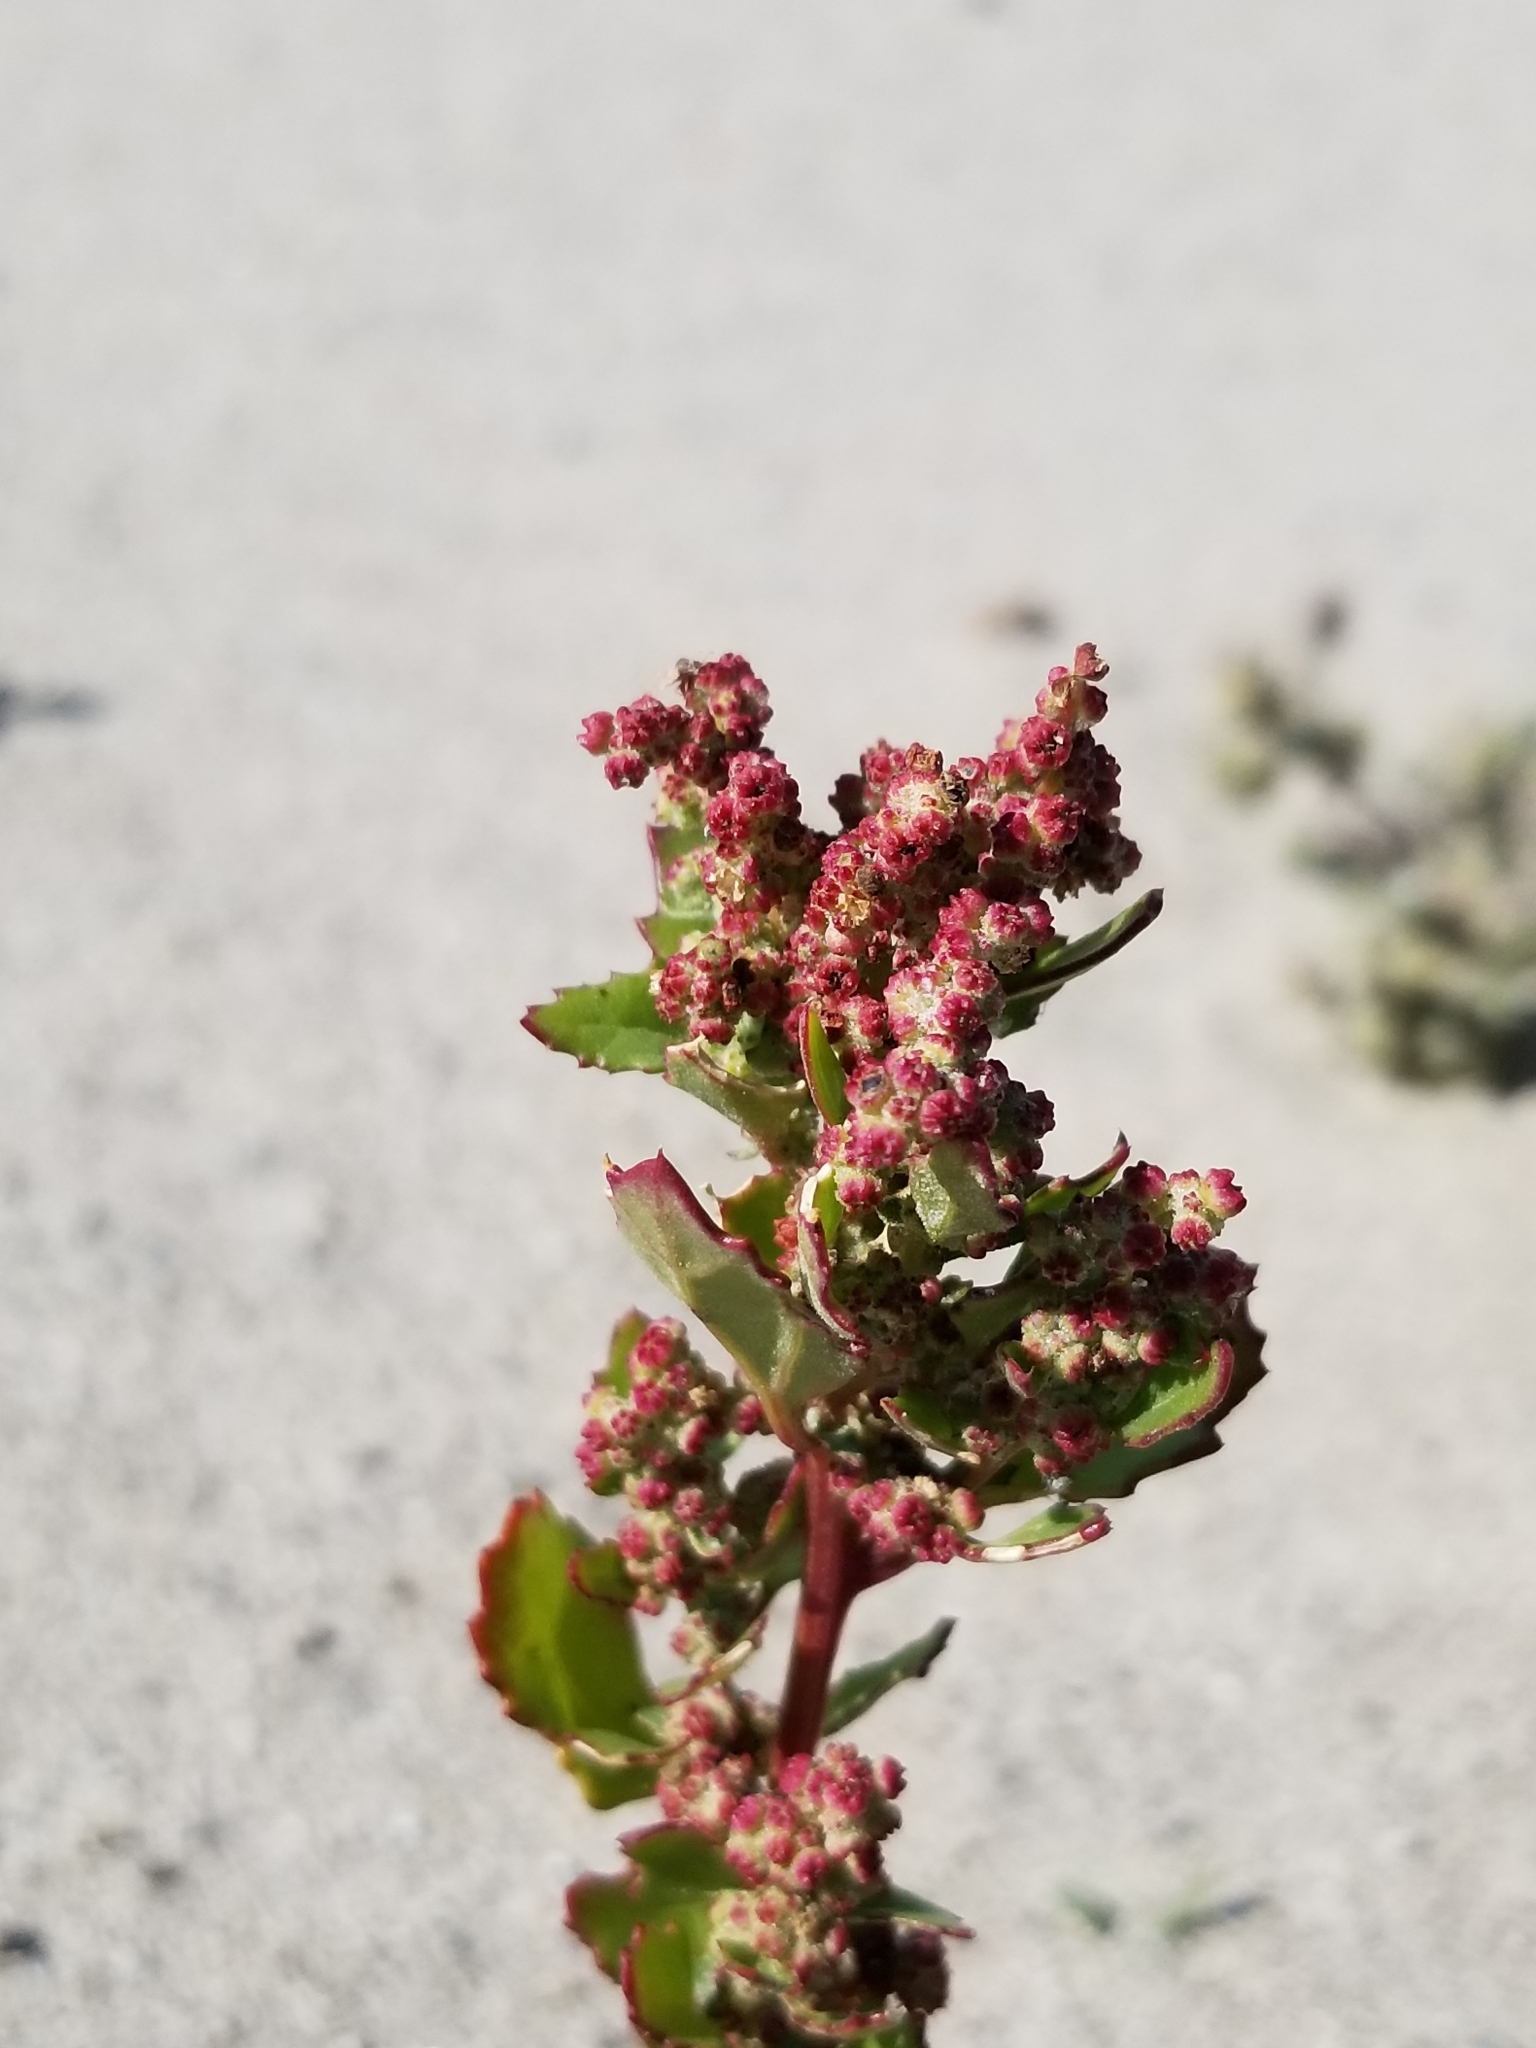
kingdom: Plantae
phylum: Tracheophyta
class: Magnoliopsida
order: Caryophyllales
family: Amaranthaceae
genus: Chenopodiastrum
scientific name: Chenopodiastrum murale
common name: Sowbane
